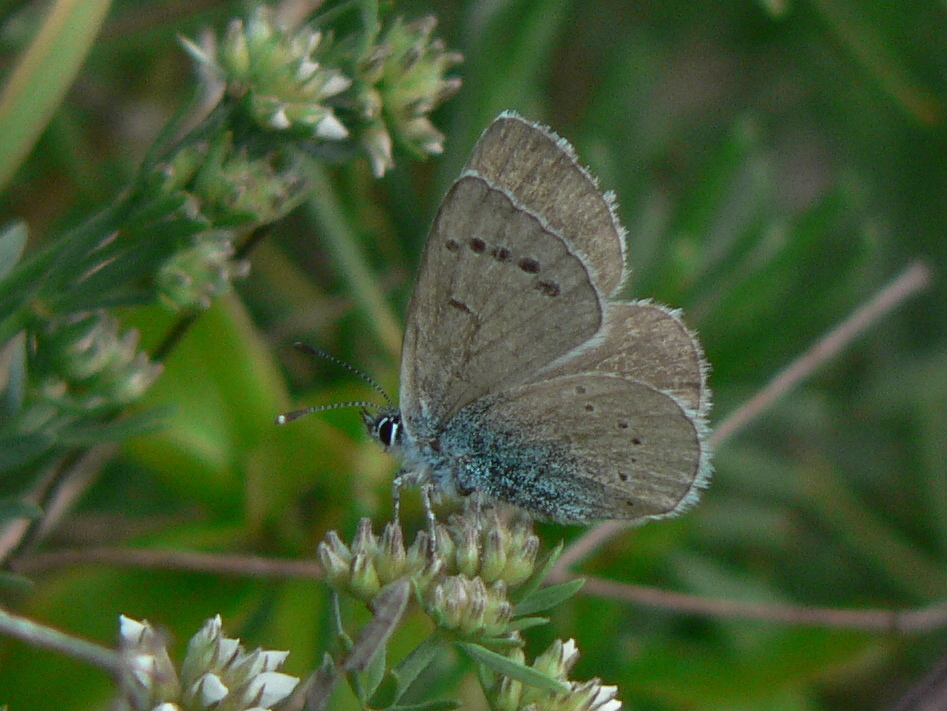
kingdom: Animalia
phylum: Arthropoda
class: Insecta
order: Lepidoptera
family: Lycaenidae
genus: Glaucopsyche
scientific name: Glaucopsyche alexis
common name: Green-underside blue
